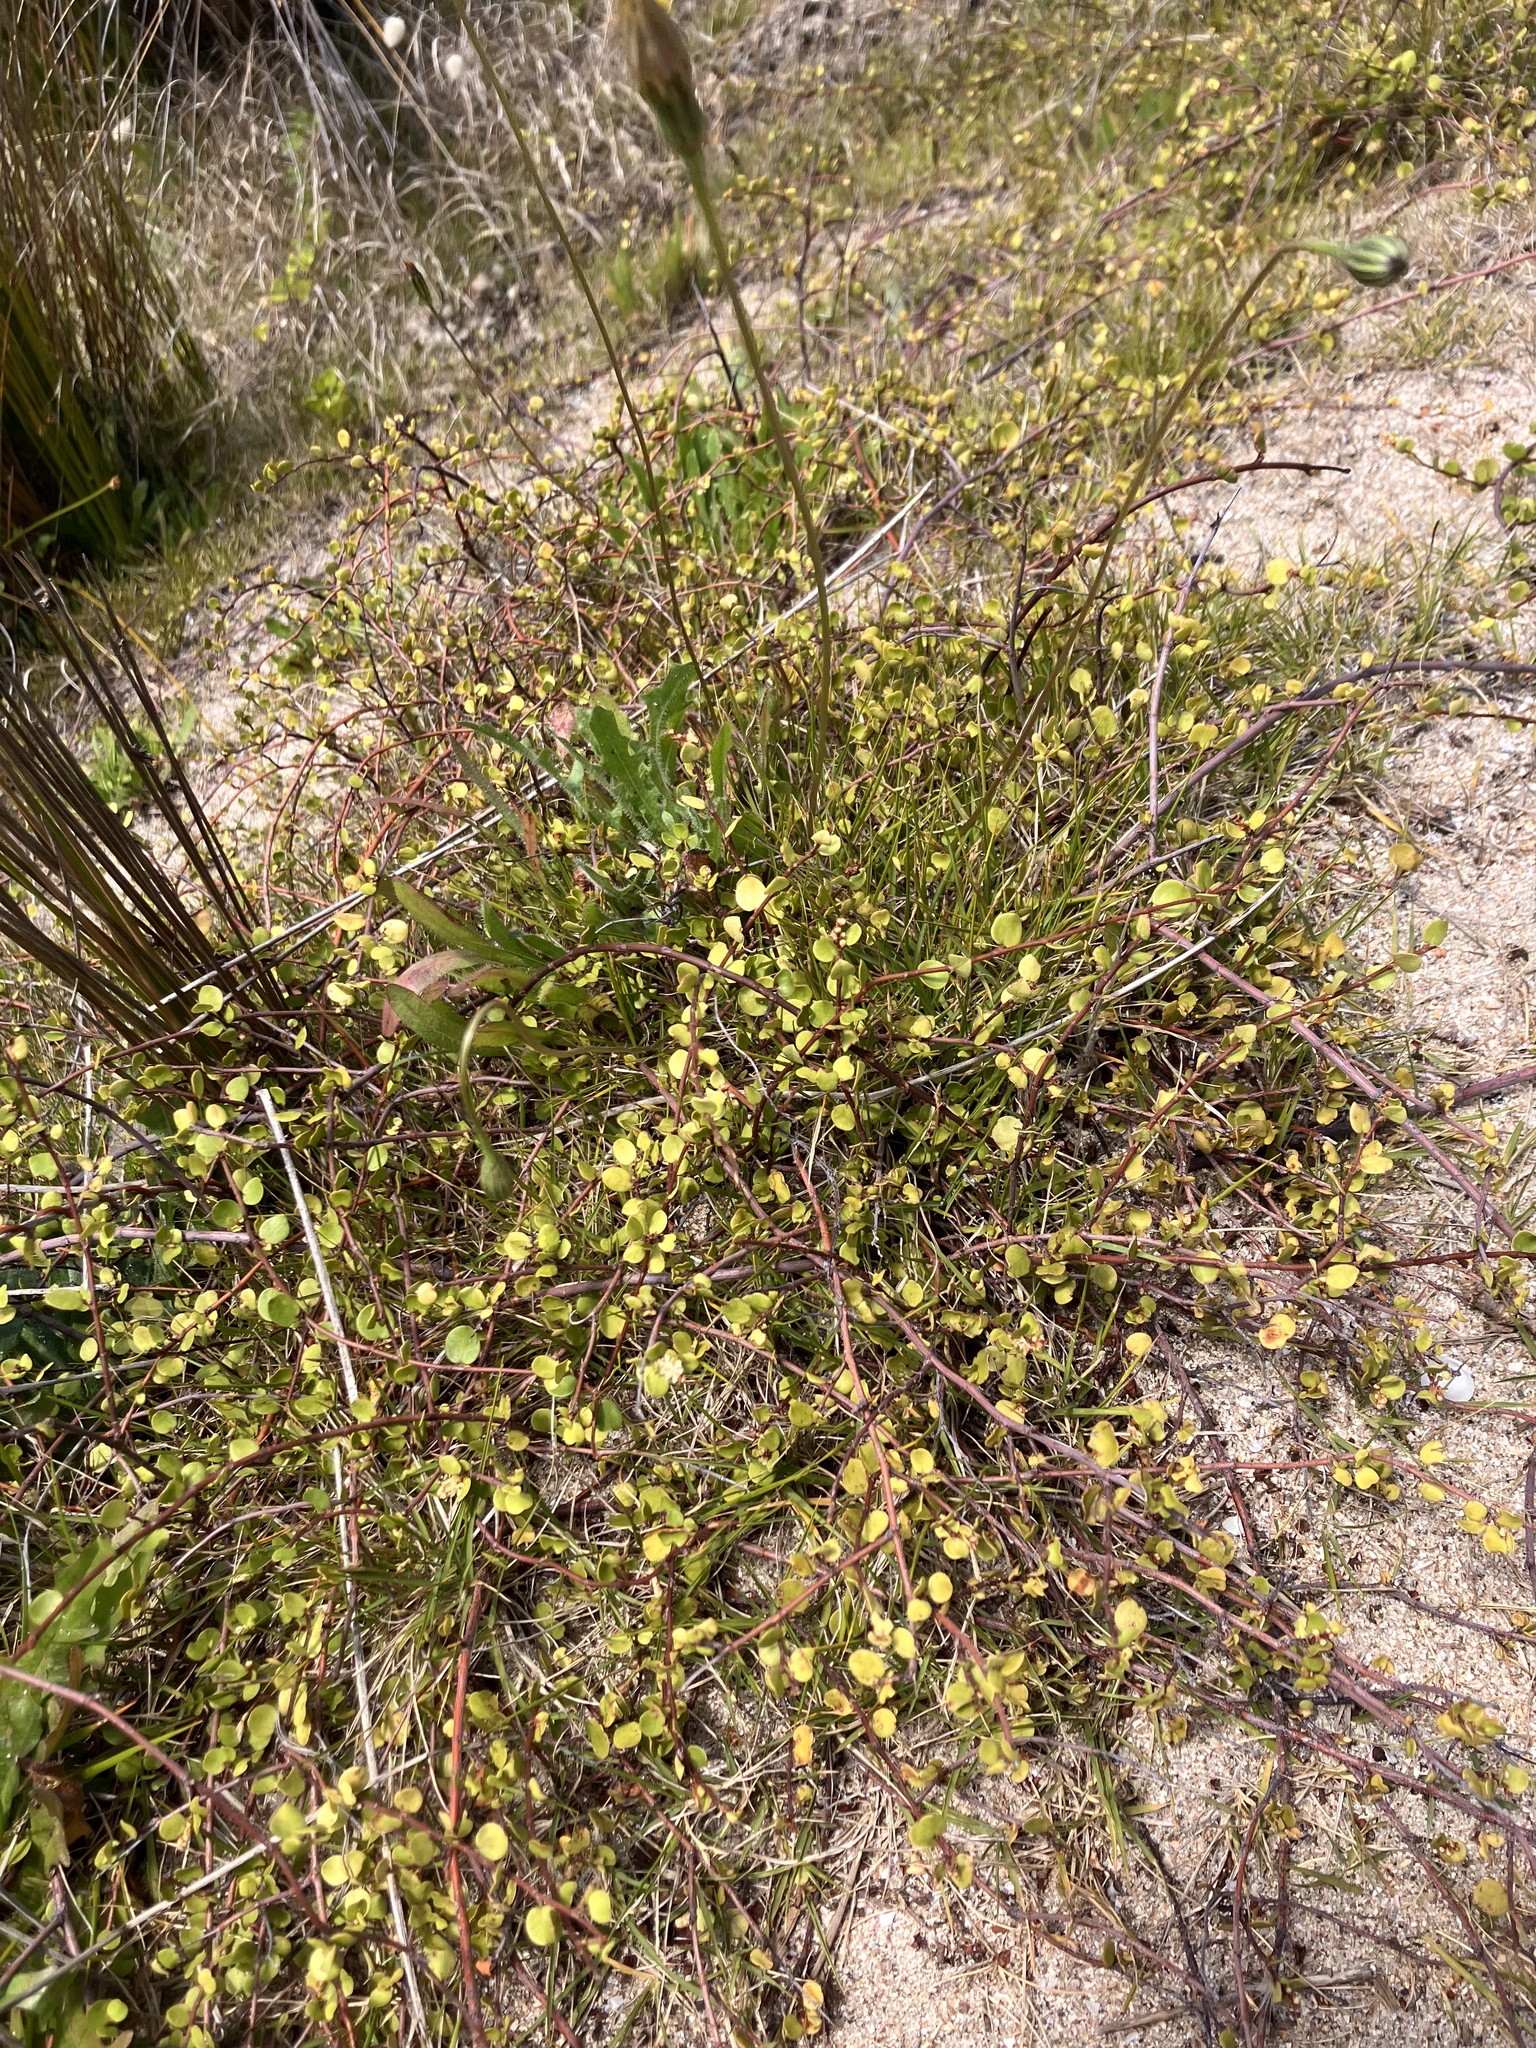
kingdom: Plantae
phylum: Tracheophyta
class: Magnoliopsida
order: Caryophyllales
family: Polygonaceae
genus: Muehlenbeckia
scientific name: Muehlenbeckia complexa
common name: Wireplant
